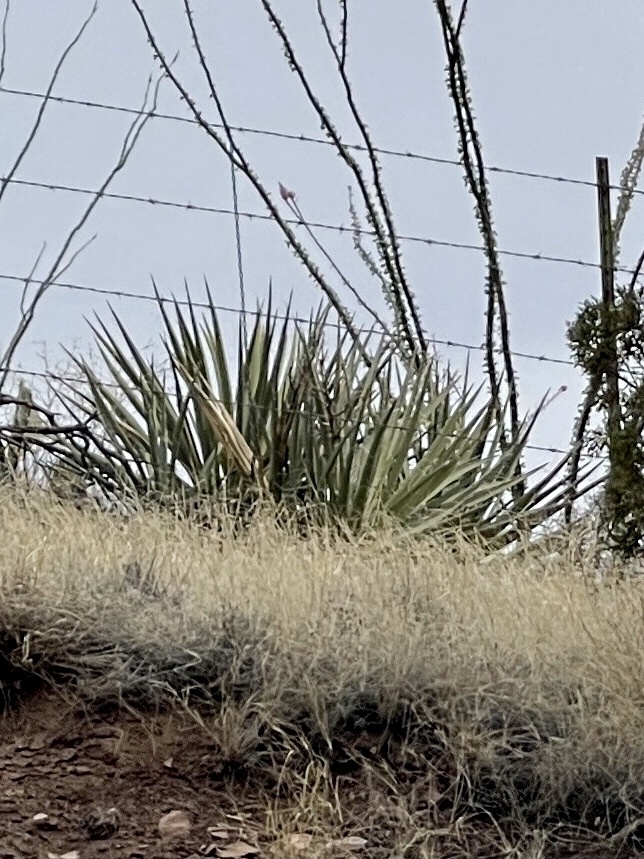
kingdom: Plantae
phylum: Tracheophyta
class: Liliopsida
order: Asparagales
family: Asparagaceae
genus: Yucca
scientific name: Yucca baccata
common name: Banana yucca
